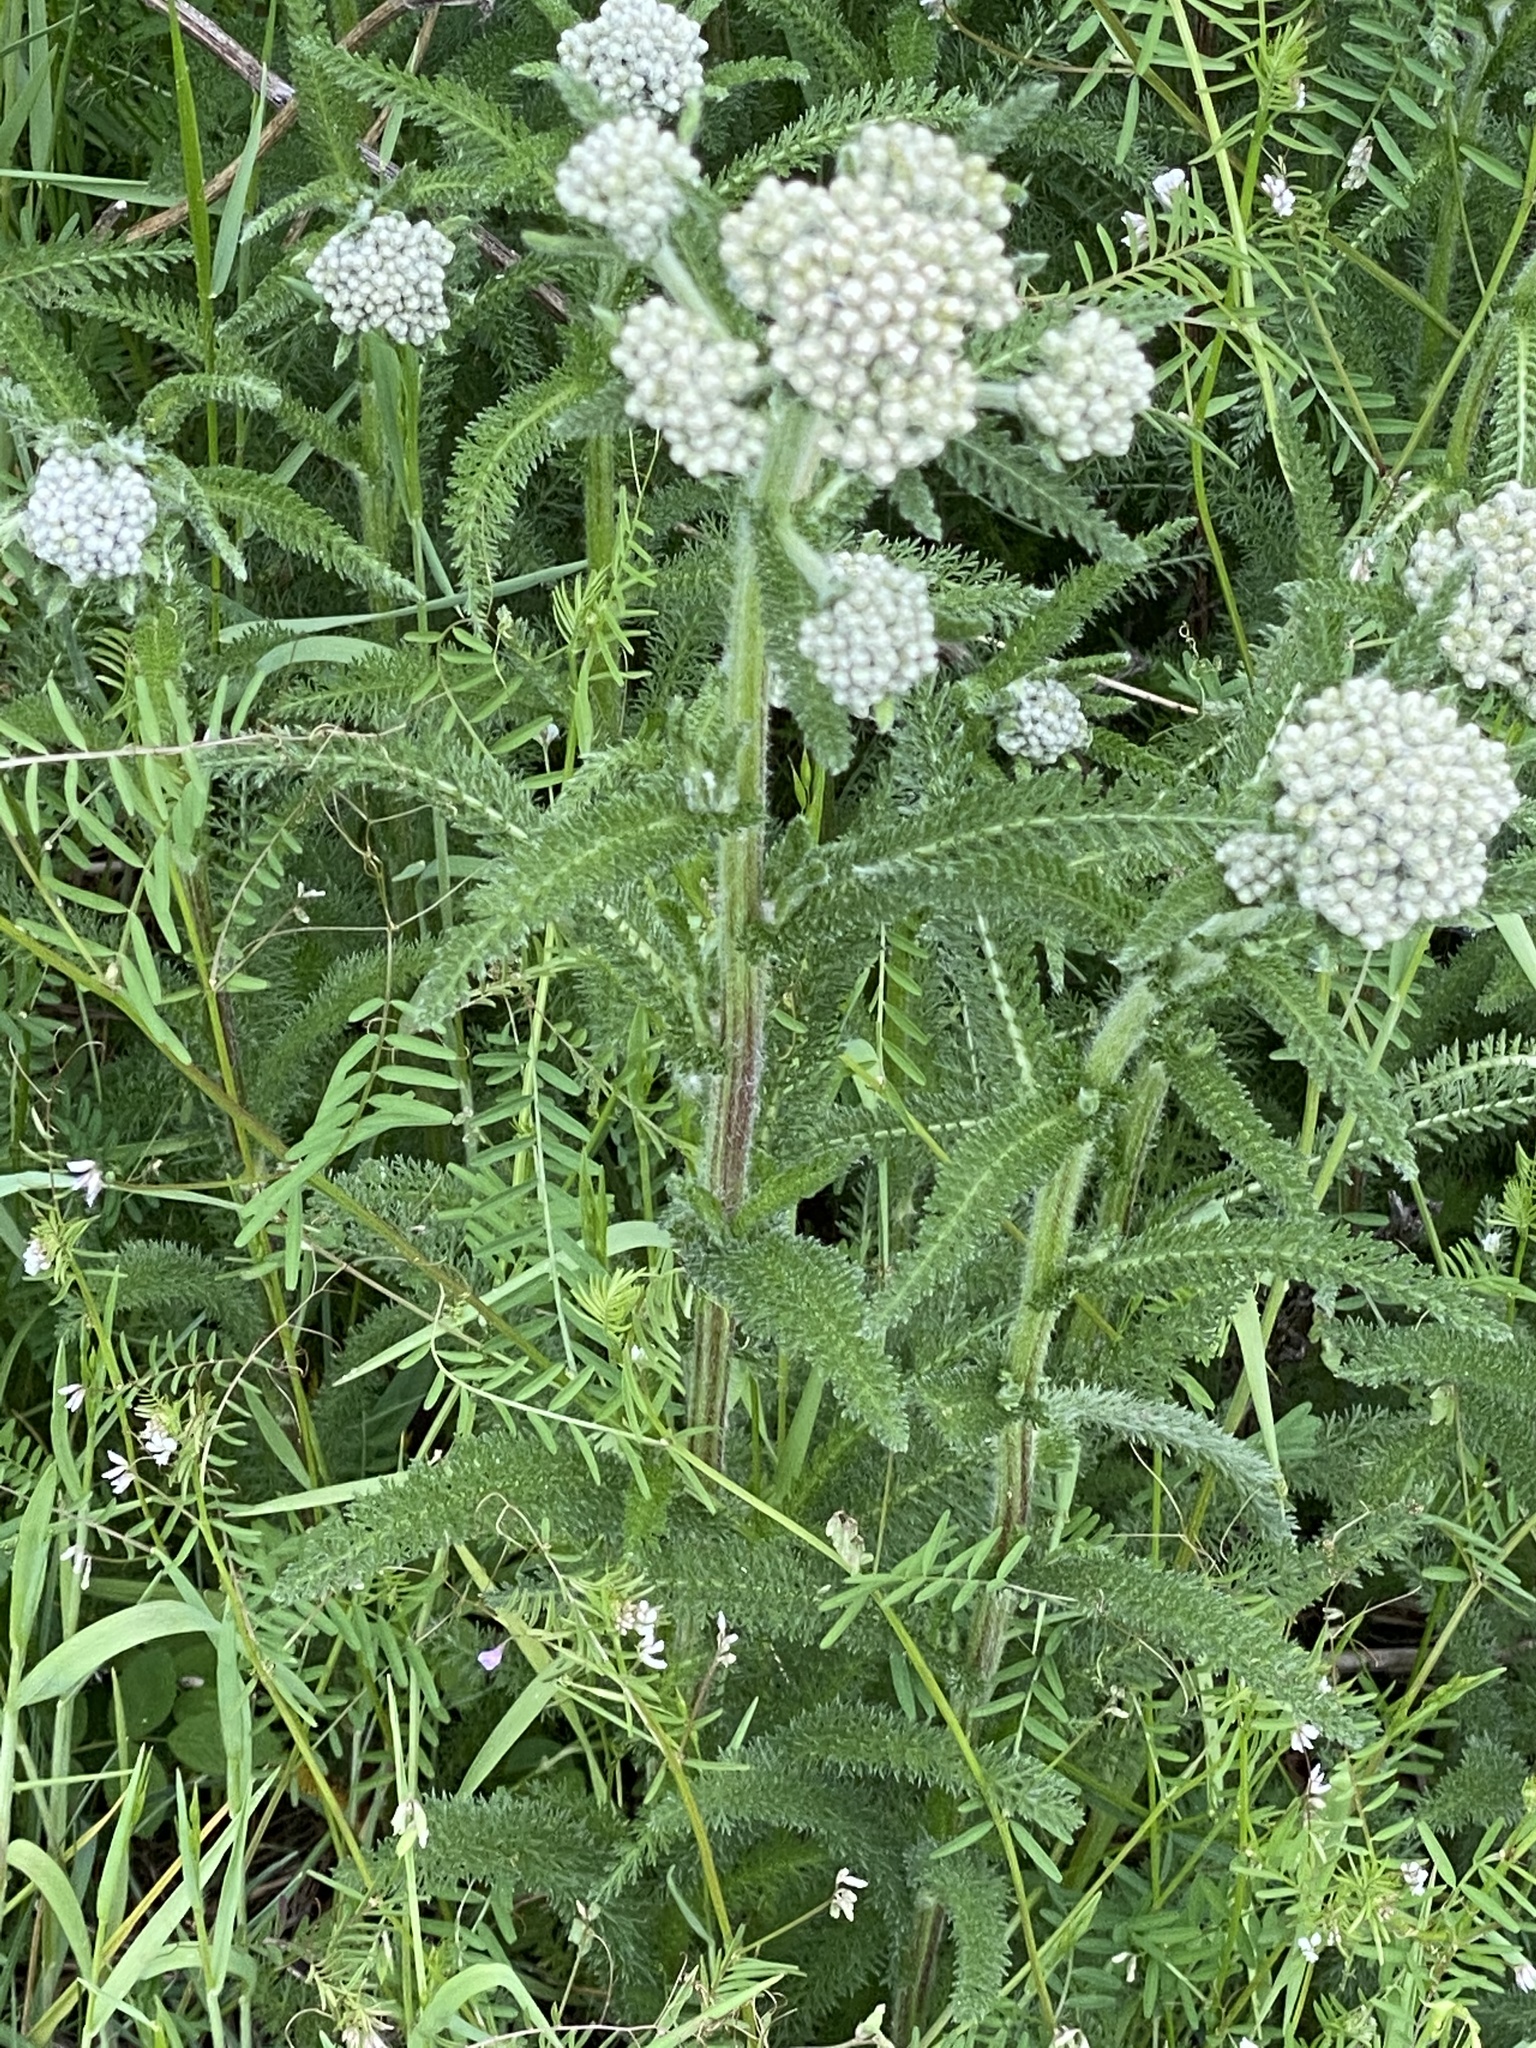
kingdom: Plantae
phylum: Tracheophyta
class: Magnoliopsida
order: Asterales
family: Asteraceae
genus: Achillea
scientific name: Achillea millefolium
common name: Yarrow
